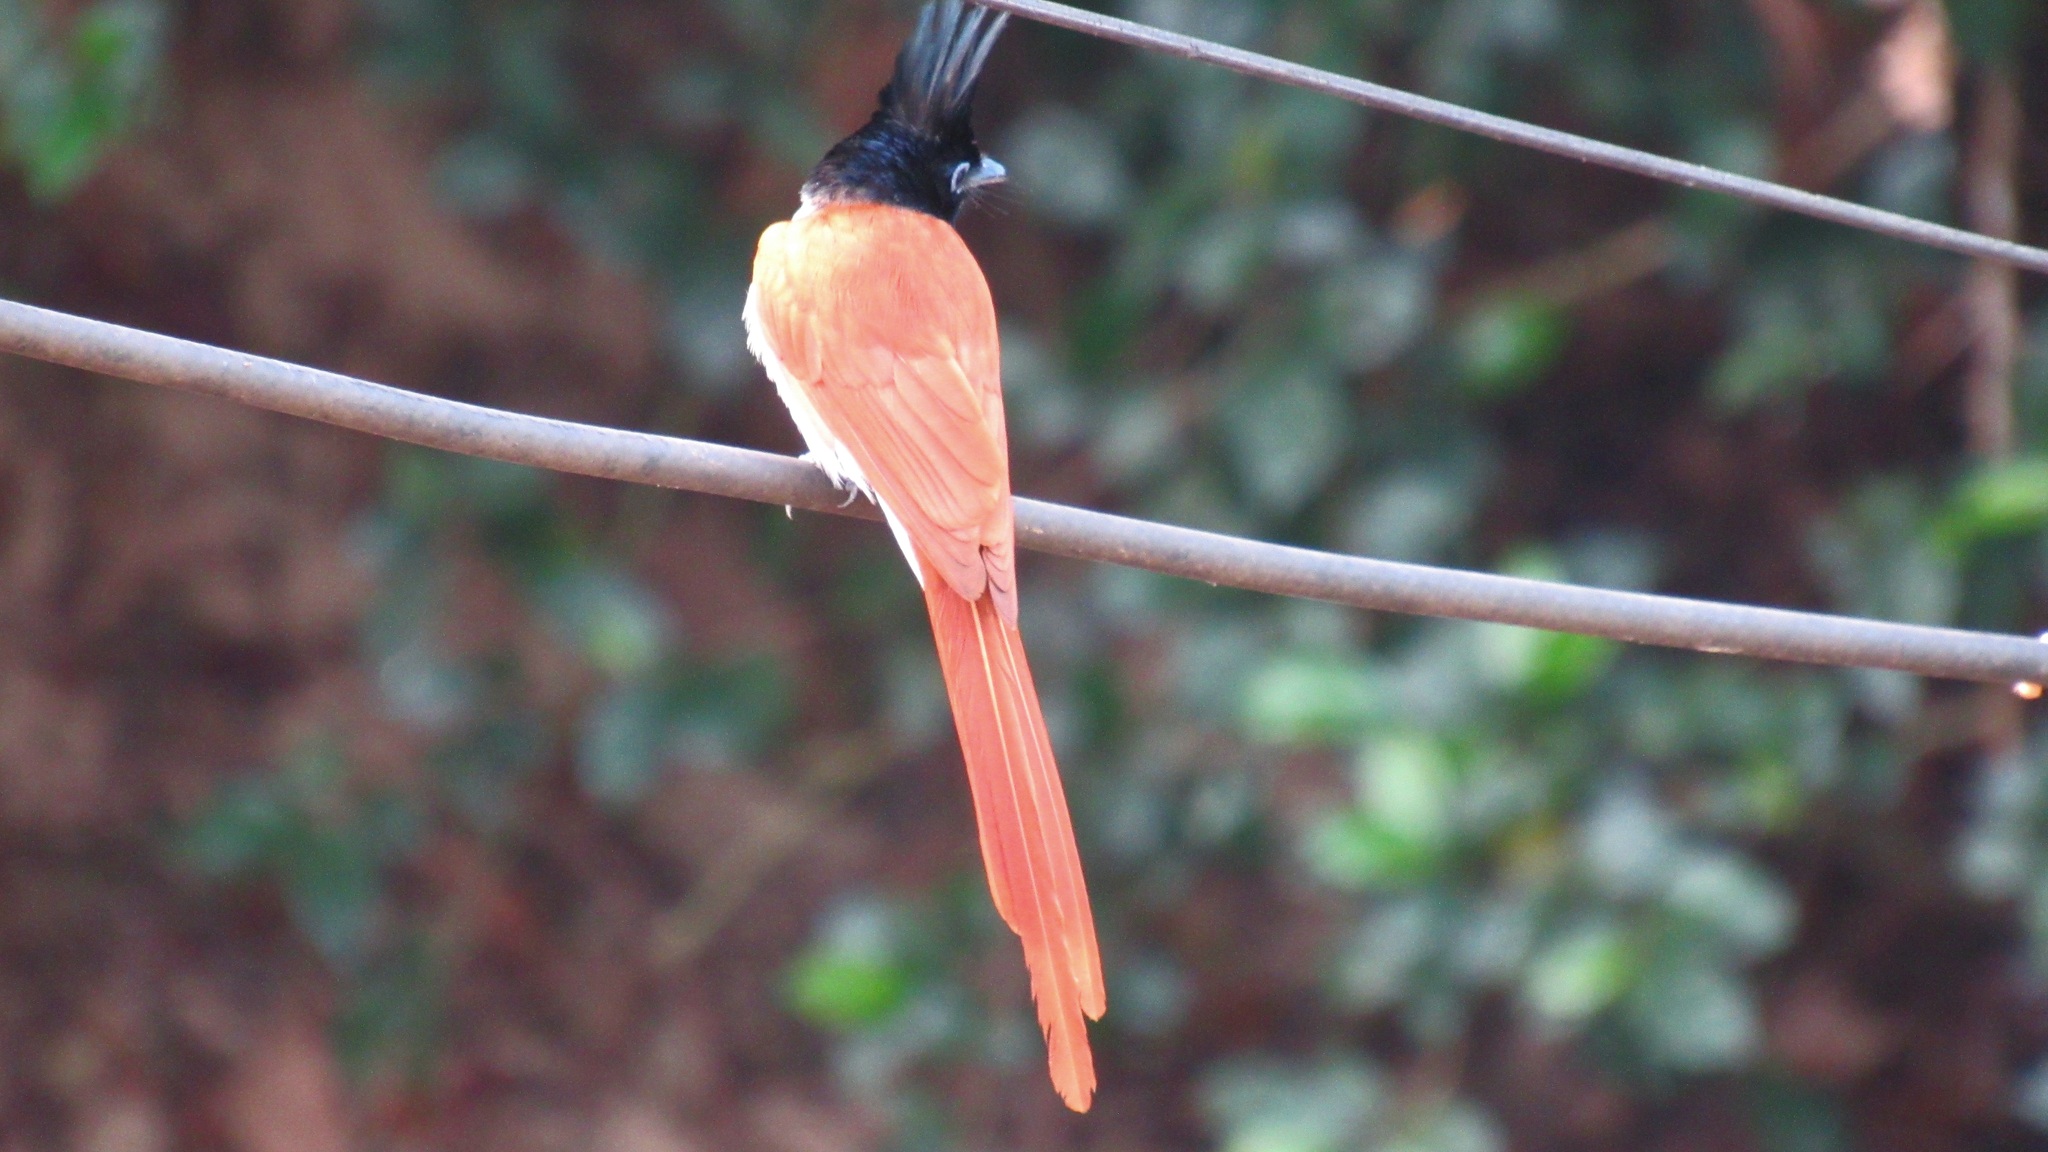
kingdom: Animalia
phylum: Chordata
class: Aves
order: Passeriformes
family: Monarchidae
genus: Terpsiphone
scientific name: Terpsiphone paradisi
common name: Indian paradise flycatcher
